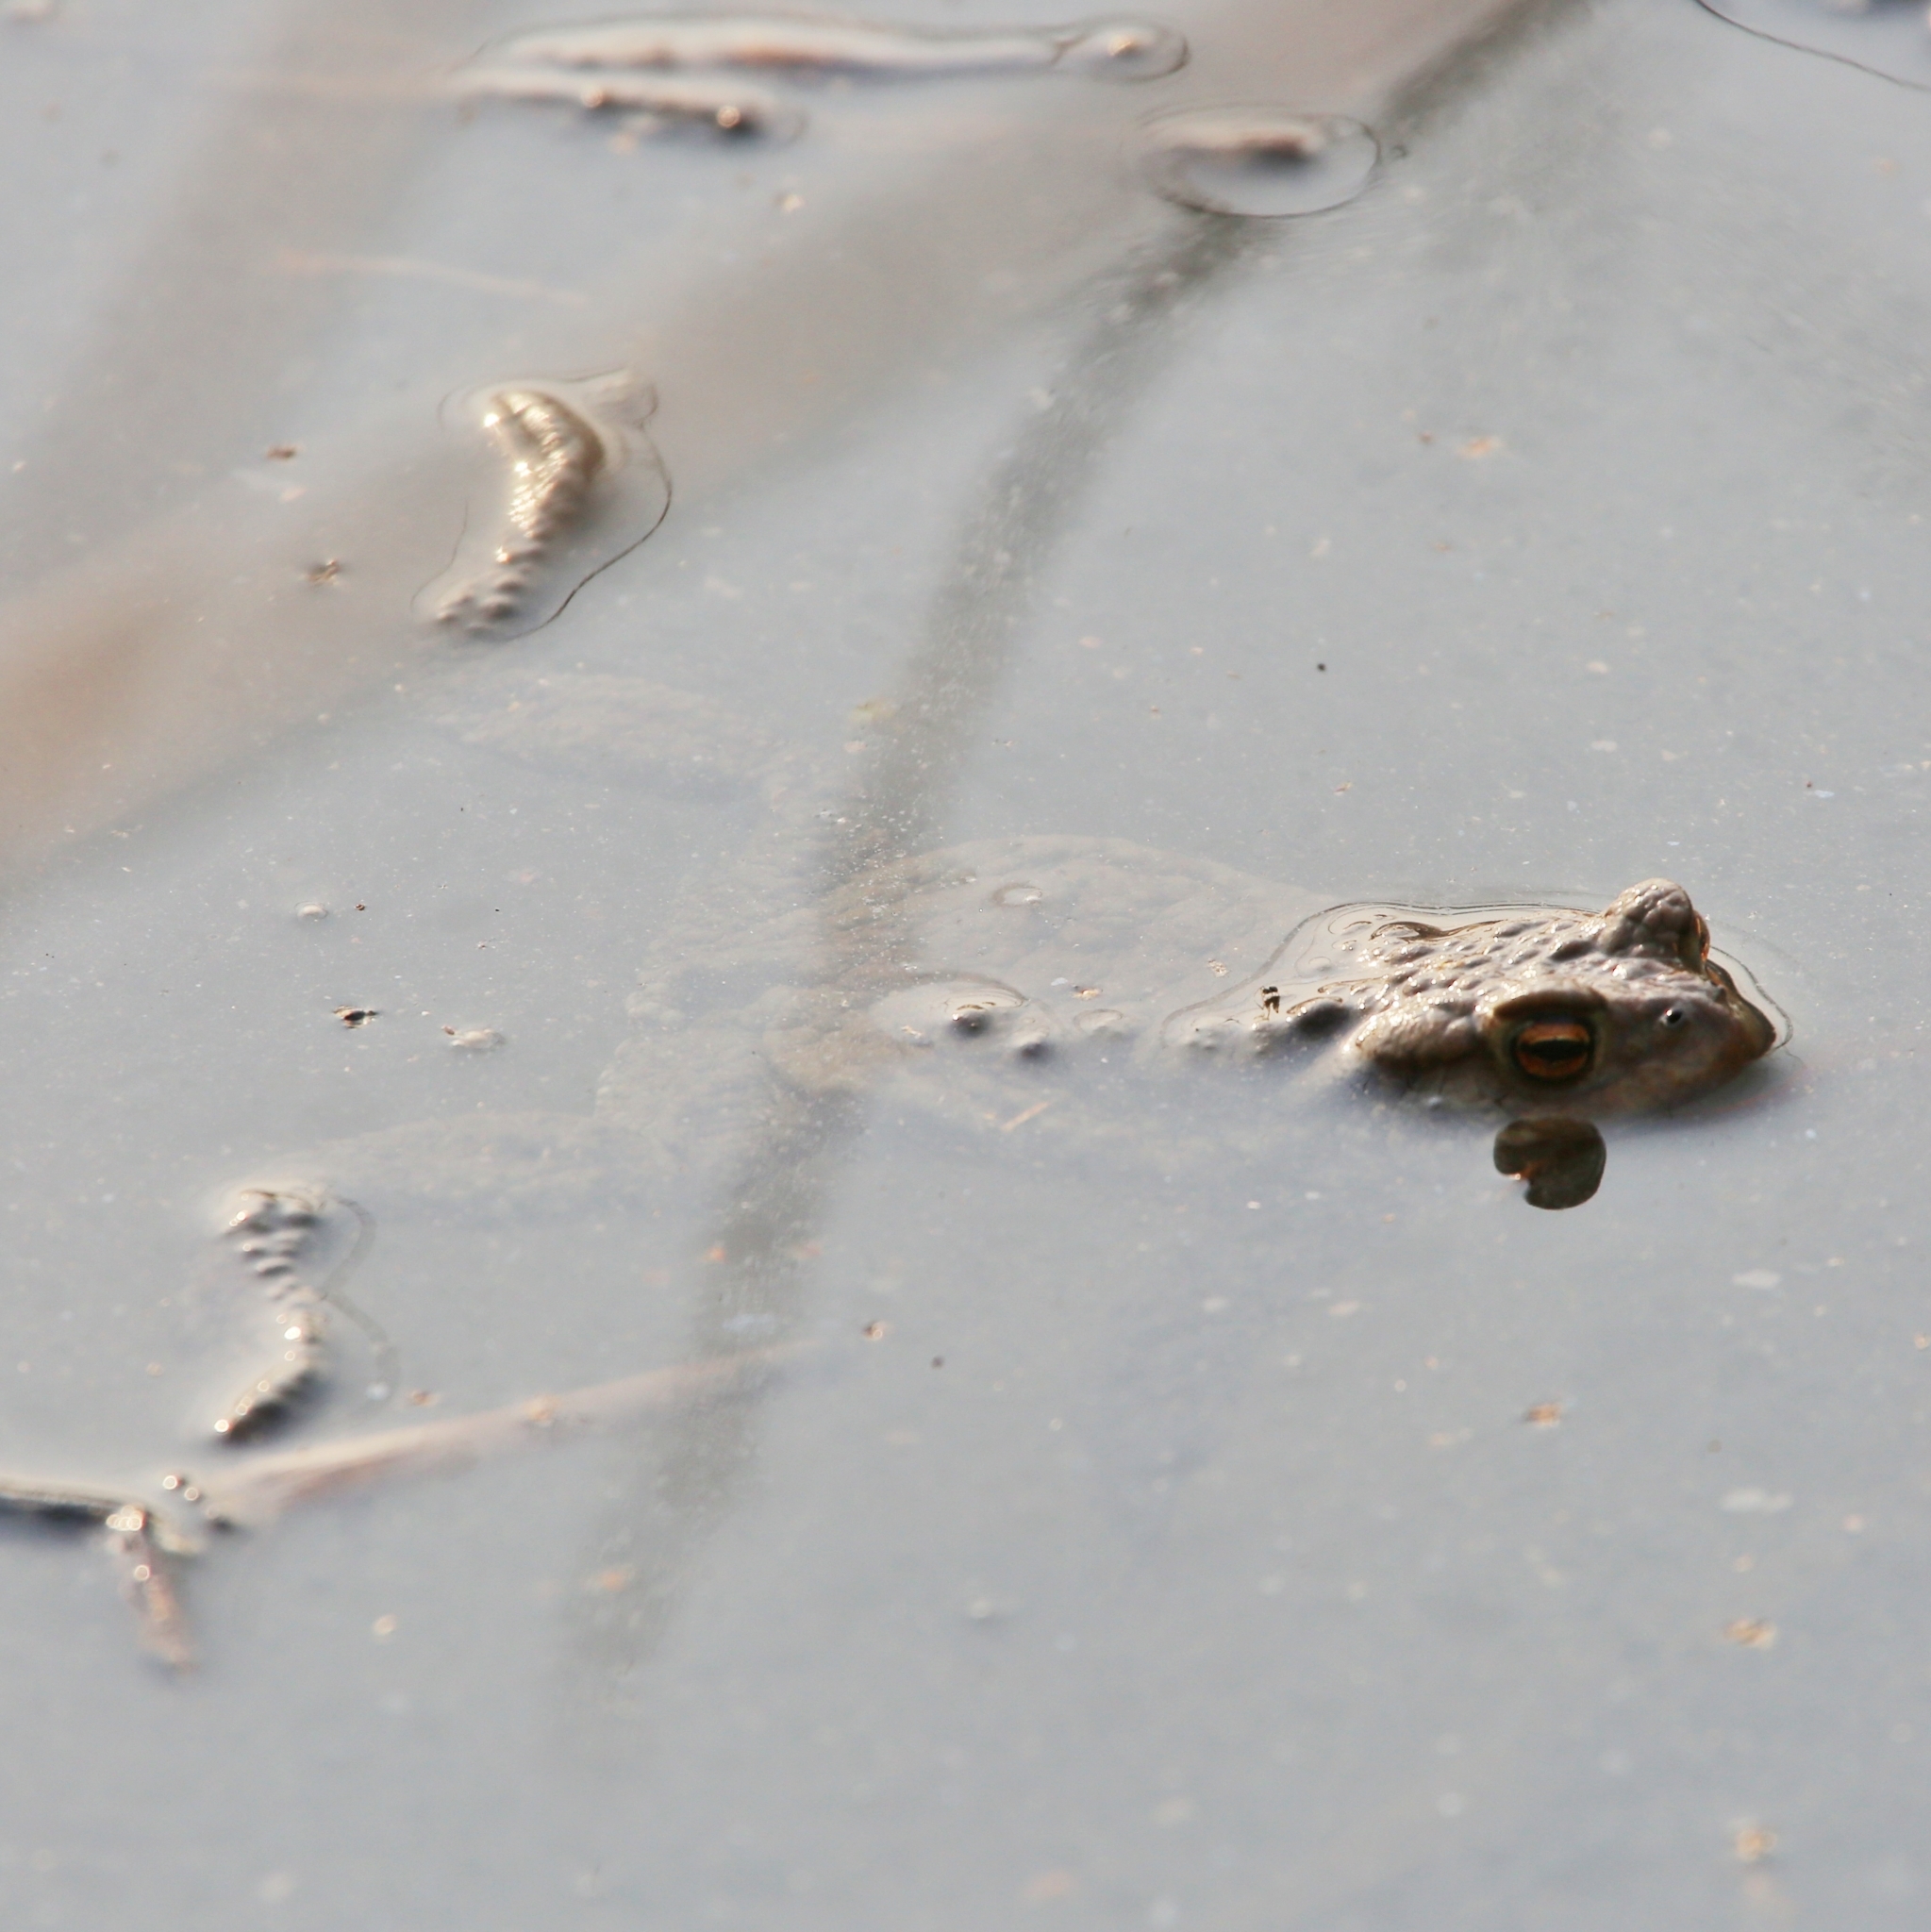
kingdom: Animalia
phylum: Chordata
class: Amphibia
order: Anura
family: Bufonidae
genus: Bufo
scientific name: Bufo bufo
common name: Common toad
